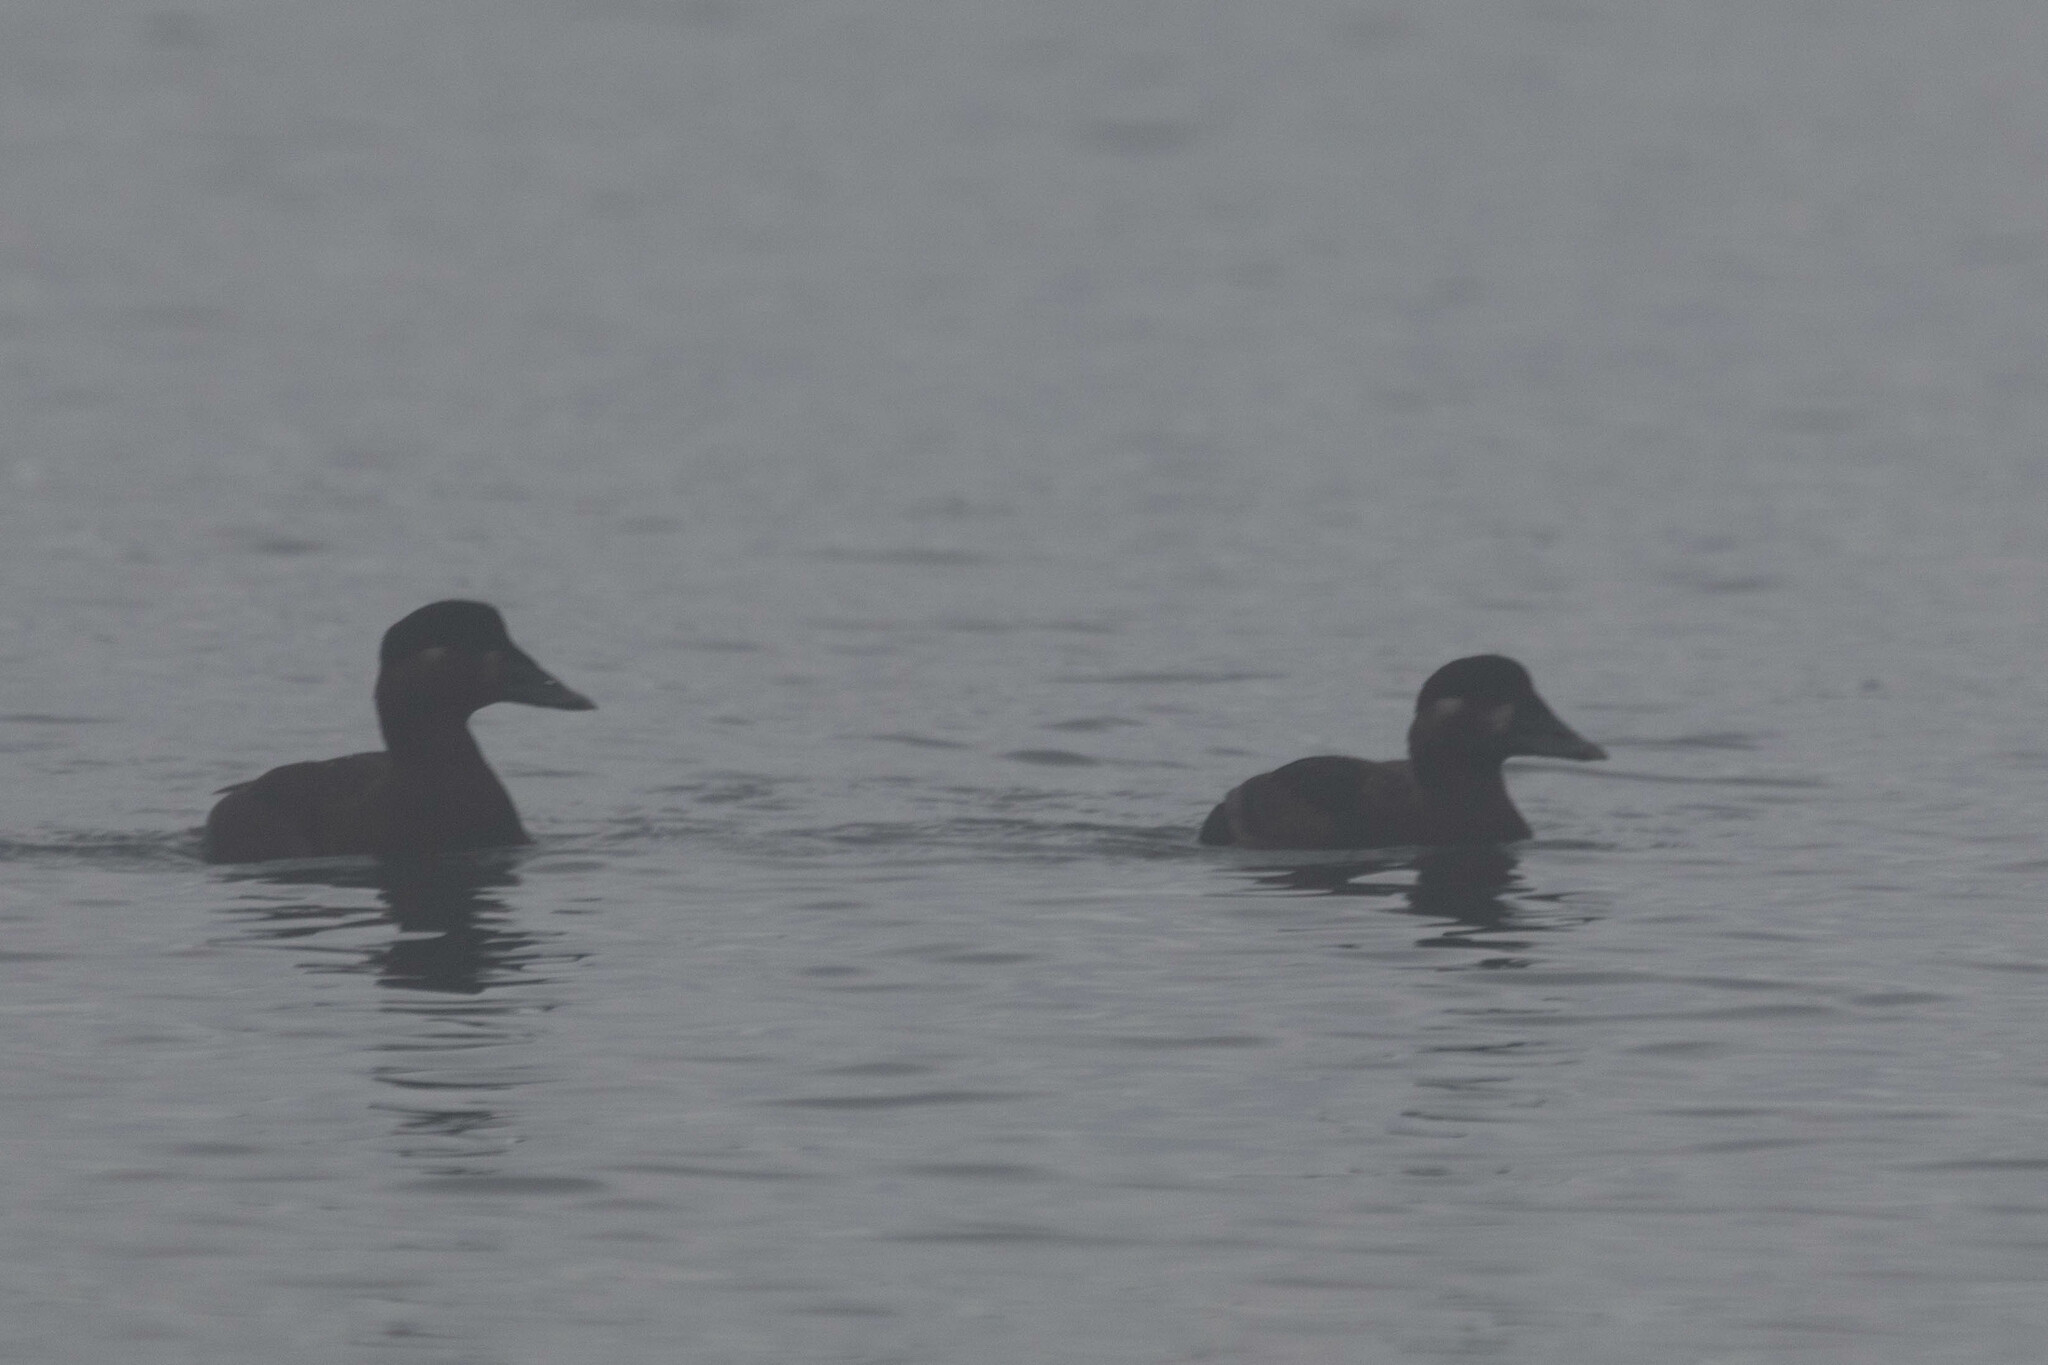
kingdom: Animalia
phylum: Chordata
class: Aves
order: Anseriformes
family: Anatidae
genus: Melanitta
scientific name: Melanitta perspicillata
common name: Surf scoter
